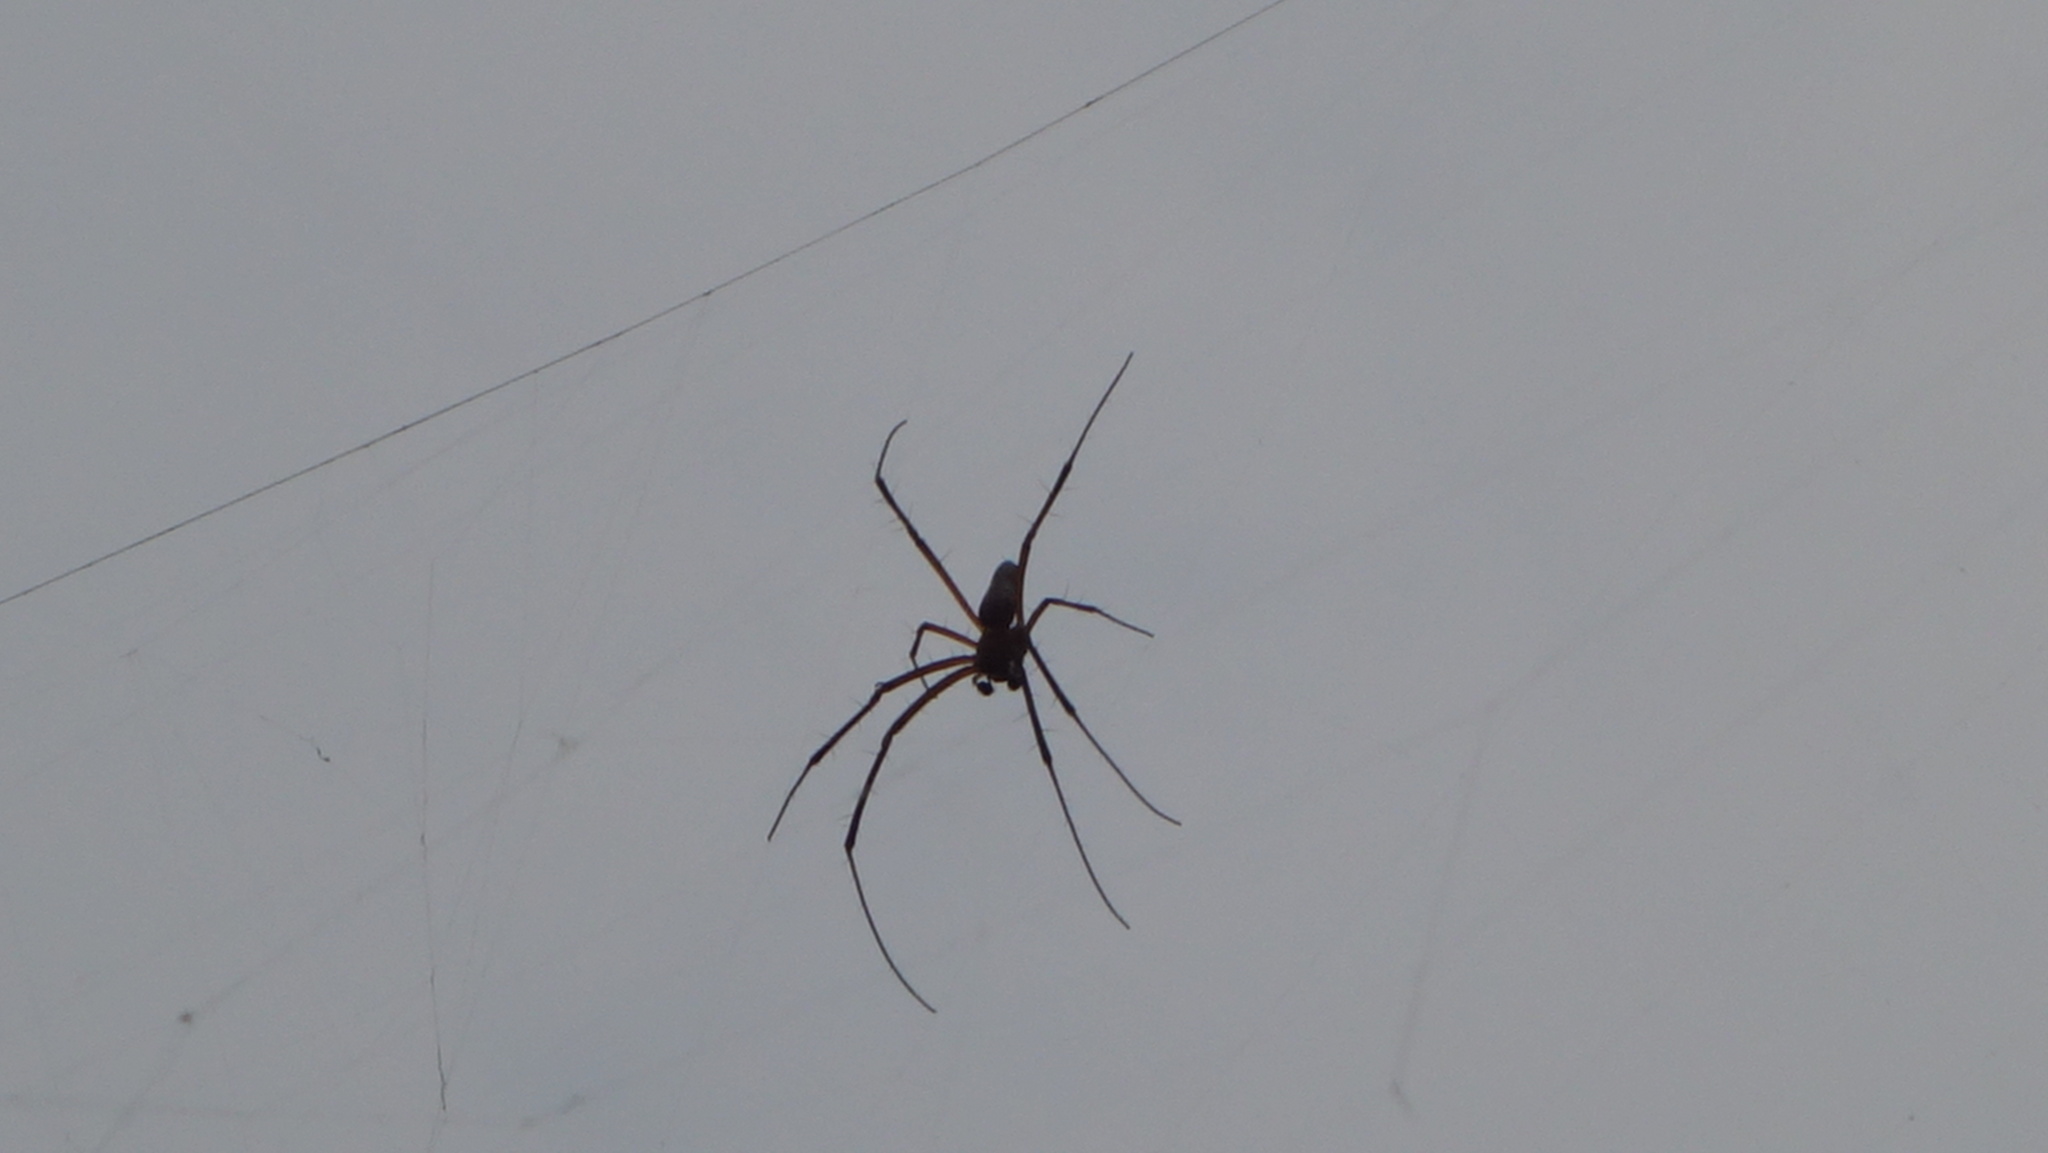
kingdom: Animalia
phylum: Arthropoda
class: Arachnida
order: Araneae
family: Araneidae
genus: Nephila
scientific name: Nephila pilipes
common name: Giant golden orb weaver
